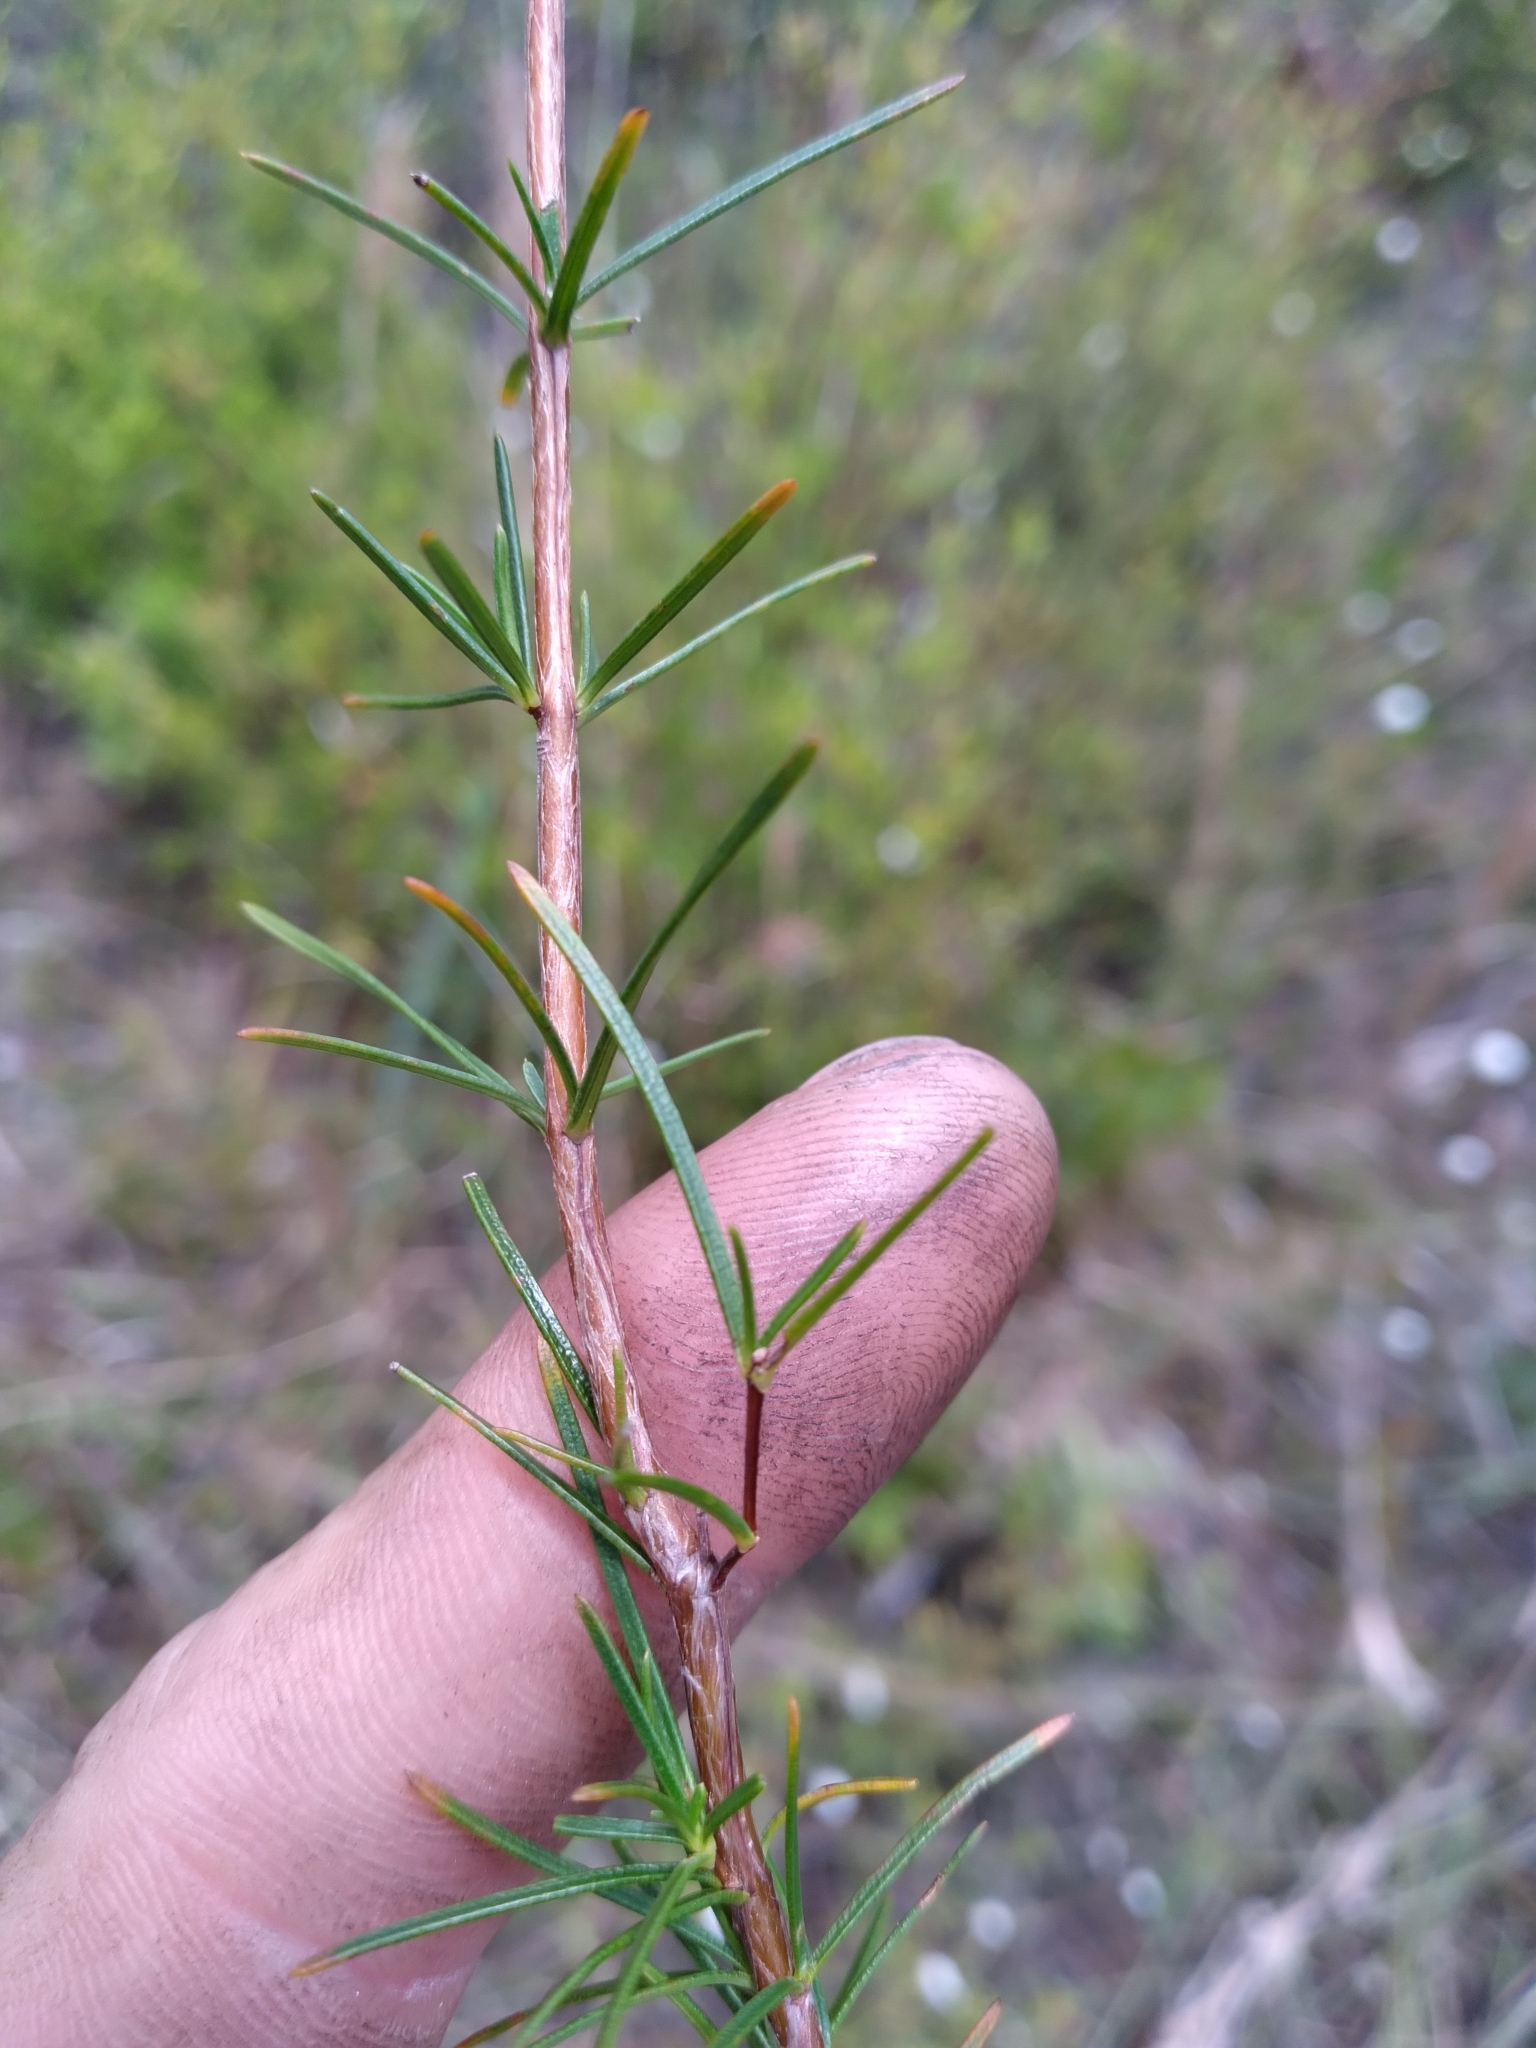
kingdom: Plantae
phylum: Tracheophyta
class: Magnoliopsida
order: Malpighiales
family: Hypericaceae
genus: Hypericum
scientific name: Hypericum nitidum
